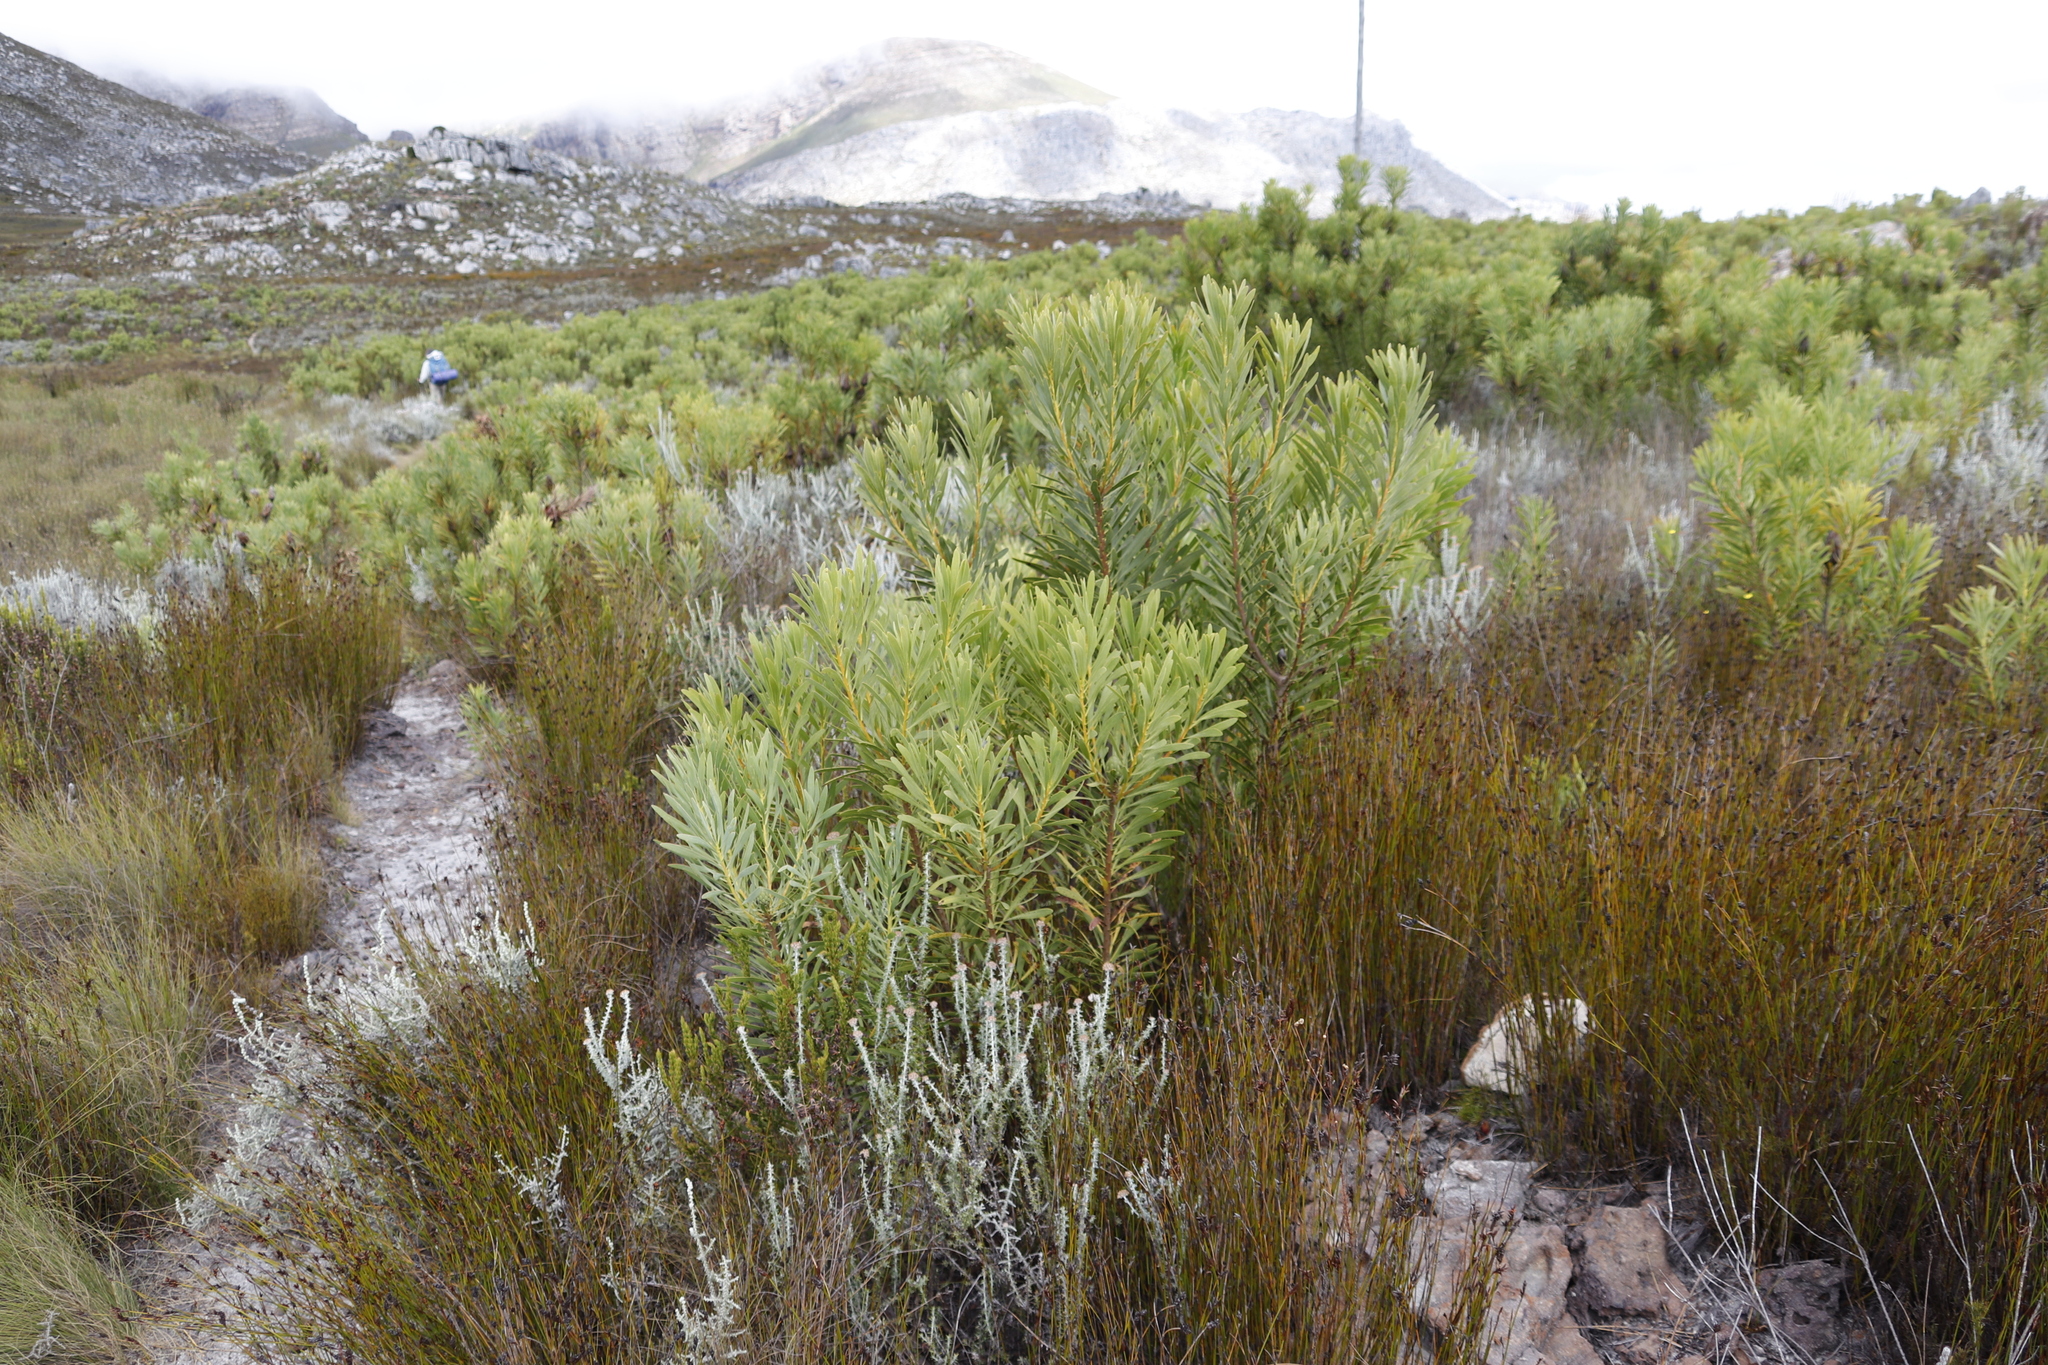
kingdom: Plantae
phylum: Tracheophyta
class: Magnoliopsida
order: Proteales
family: Proteaceae
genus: Protea
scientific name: Protea repens
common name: Sugarbush
